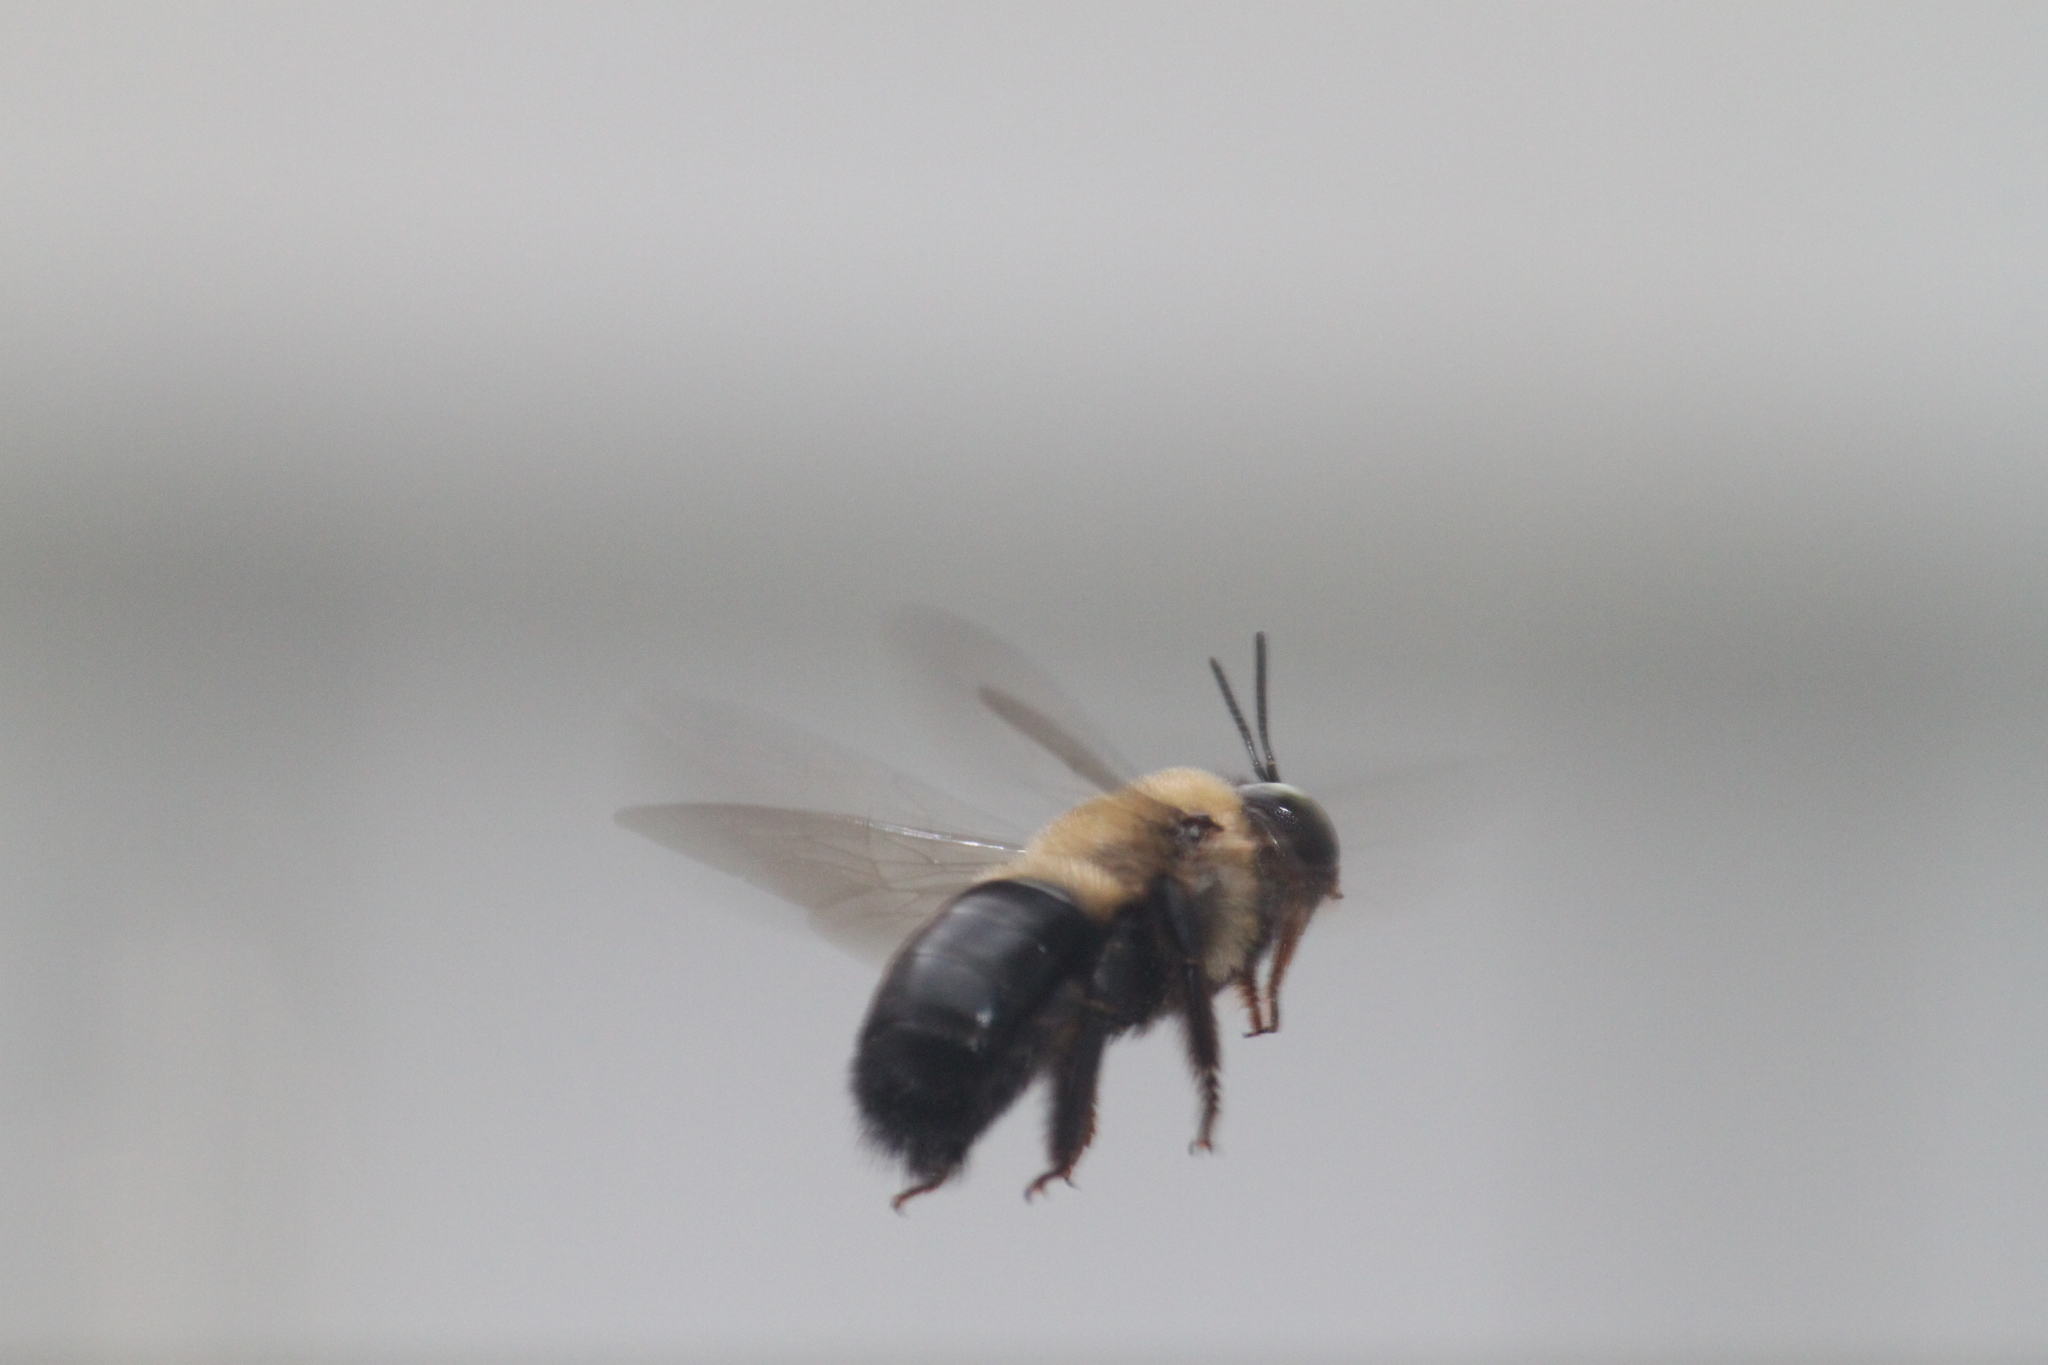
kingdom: Animalia
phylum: Arthropoda
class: Insecta
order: Hymenoptera
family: Apidae
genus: Xylocopa
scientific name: Xylocopa virginica
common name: Carpenter bee
